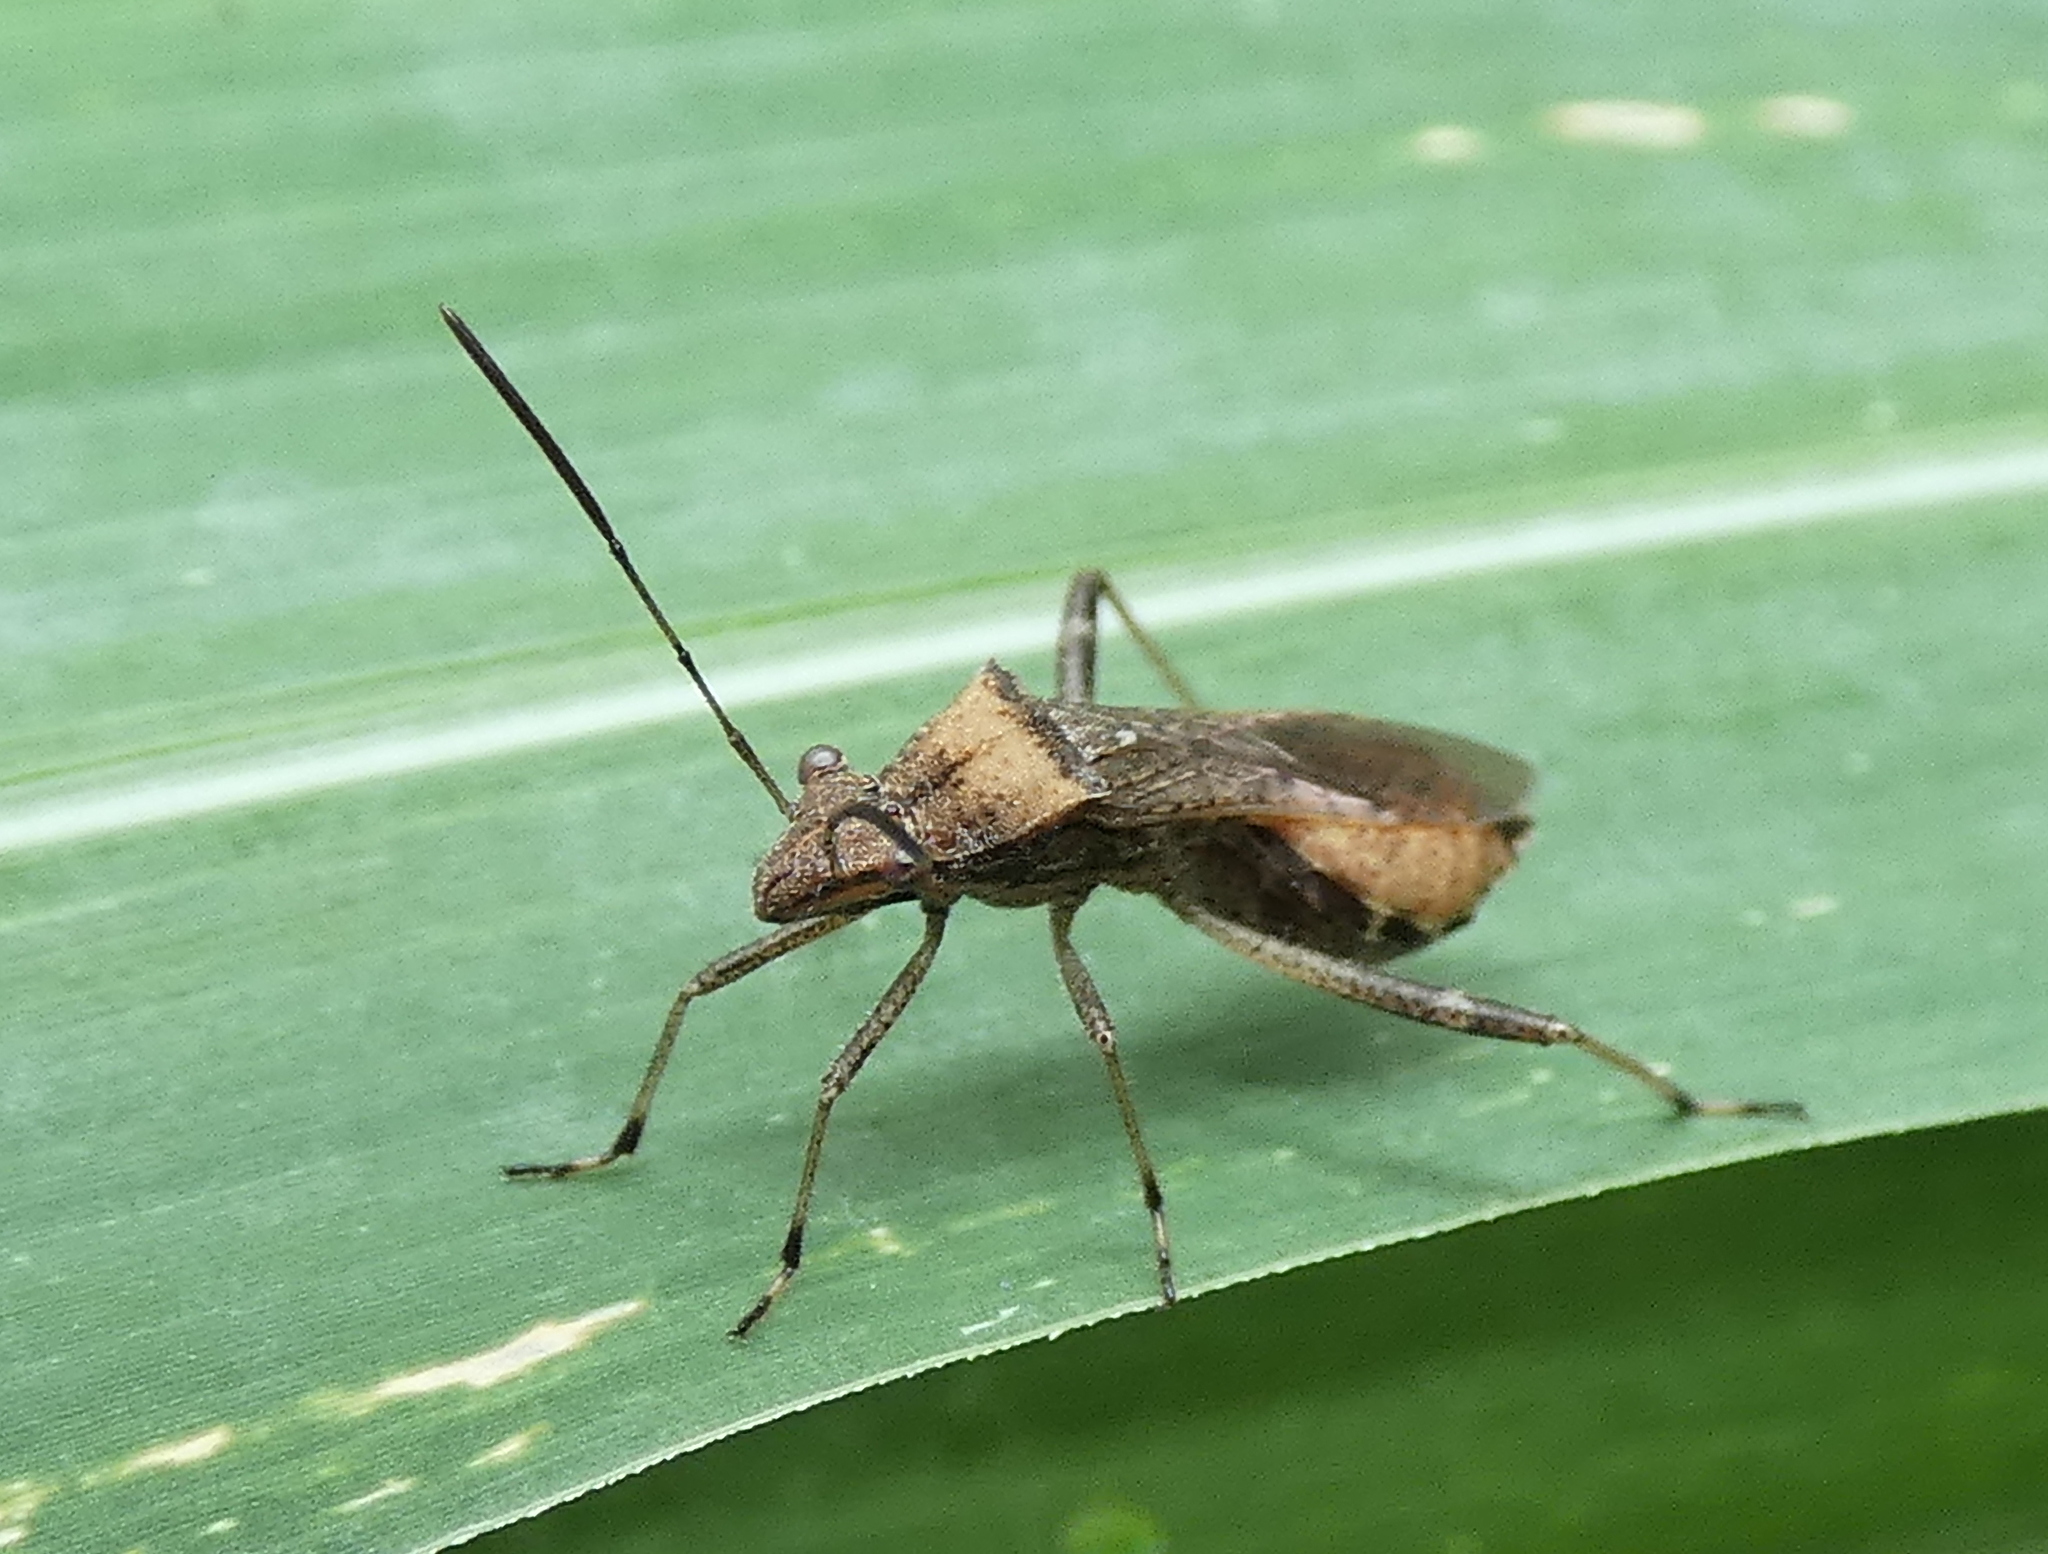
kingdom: Animalia
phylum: Arthropoda
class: Insecta
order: Hemiptera
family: Alydidae
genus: Neomegalotomus
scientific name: Neomegalotomus parvus
